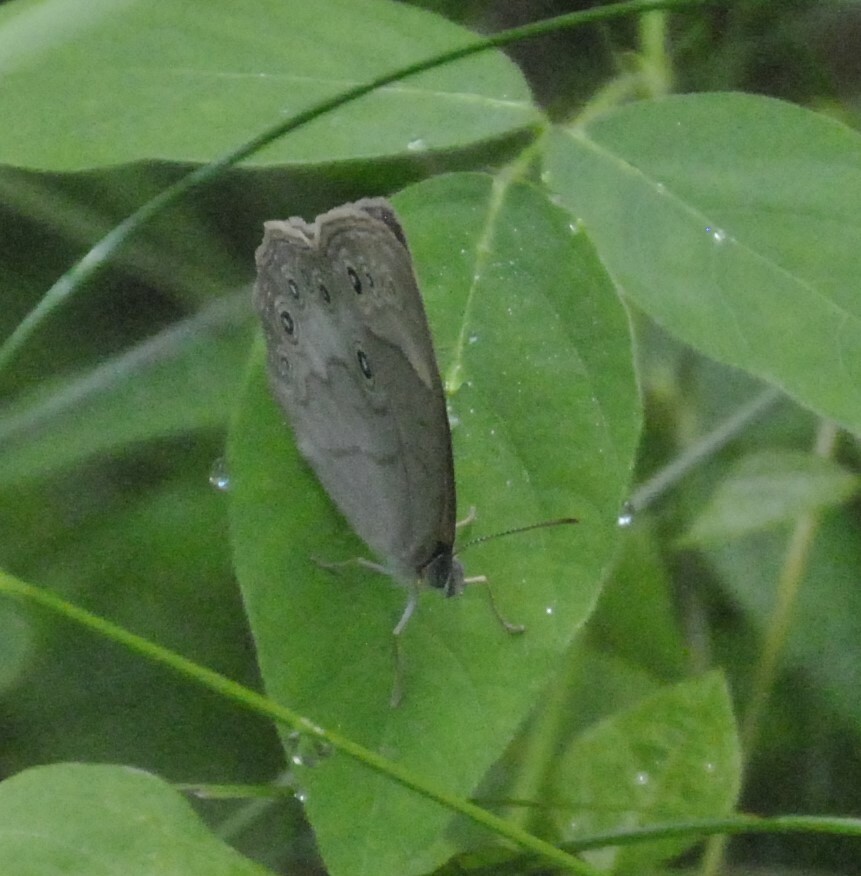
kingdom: Animalia
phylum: Arthropoda
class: Insecta
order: Lepidoptera
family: Nymphalidae
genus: Lethe
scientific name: Lethe eurydice
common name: Eyed brown
